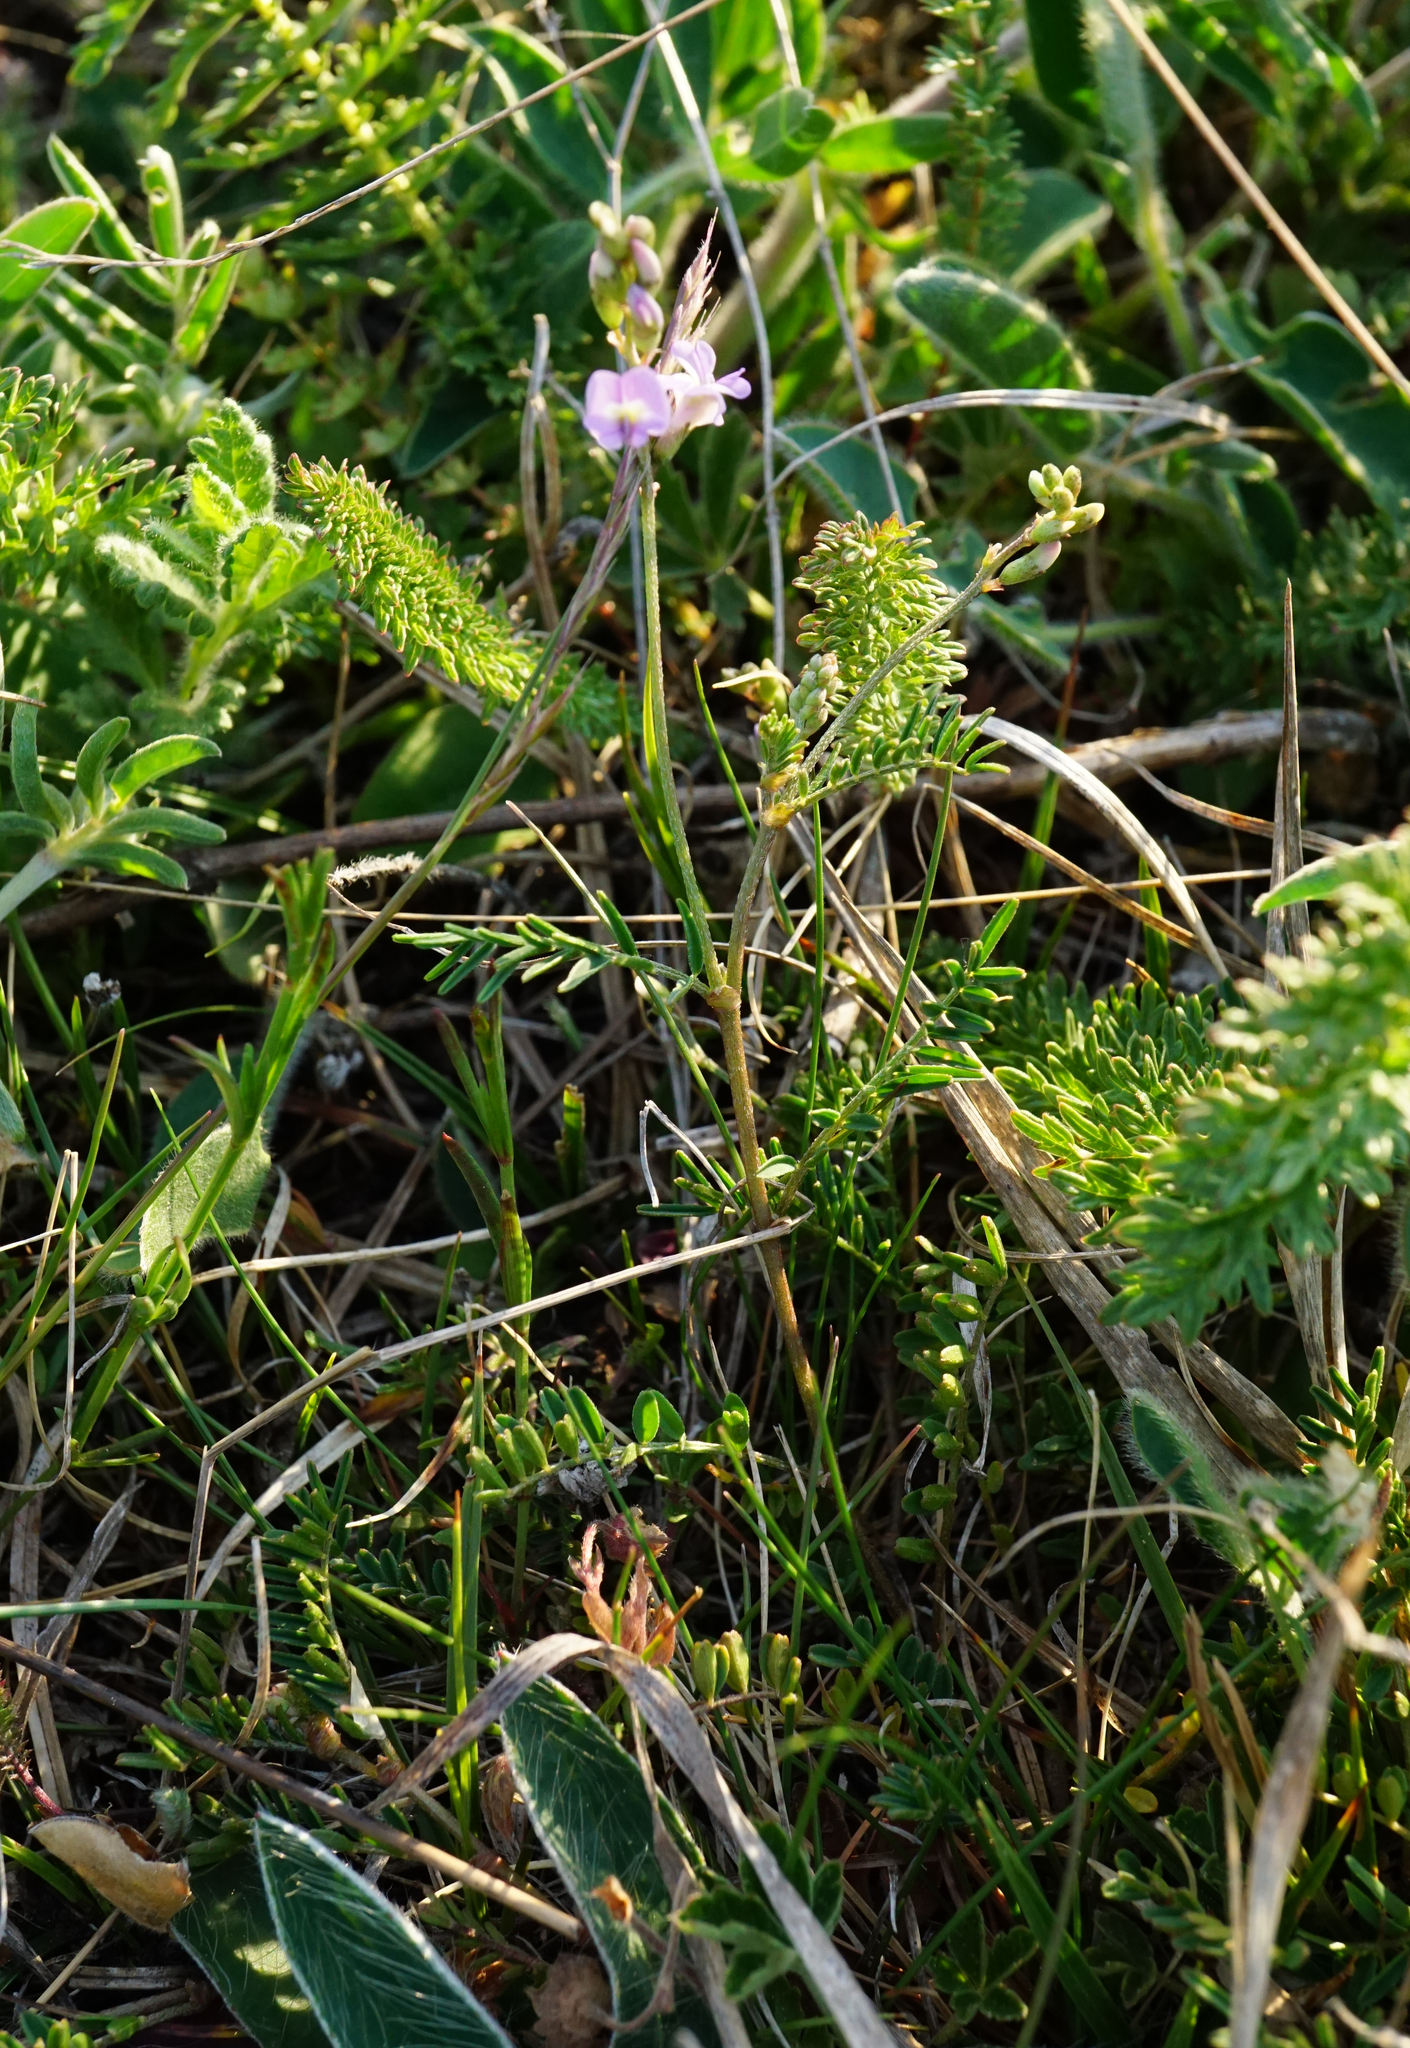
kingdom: Plantae
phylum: Tracheophyta
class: Magnoliopsida
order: Fabales
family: Fabaceae
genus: Astragalus
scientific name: Astragalus austriacus
